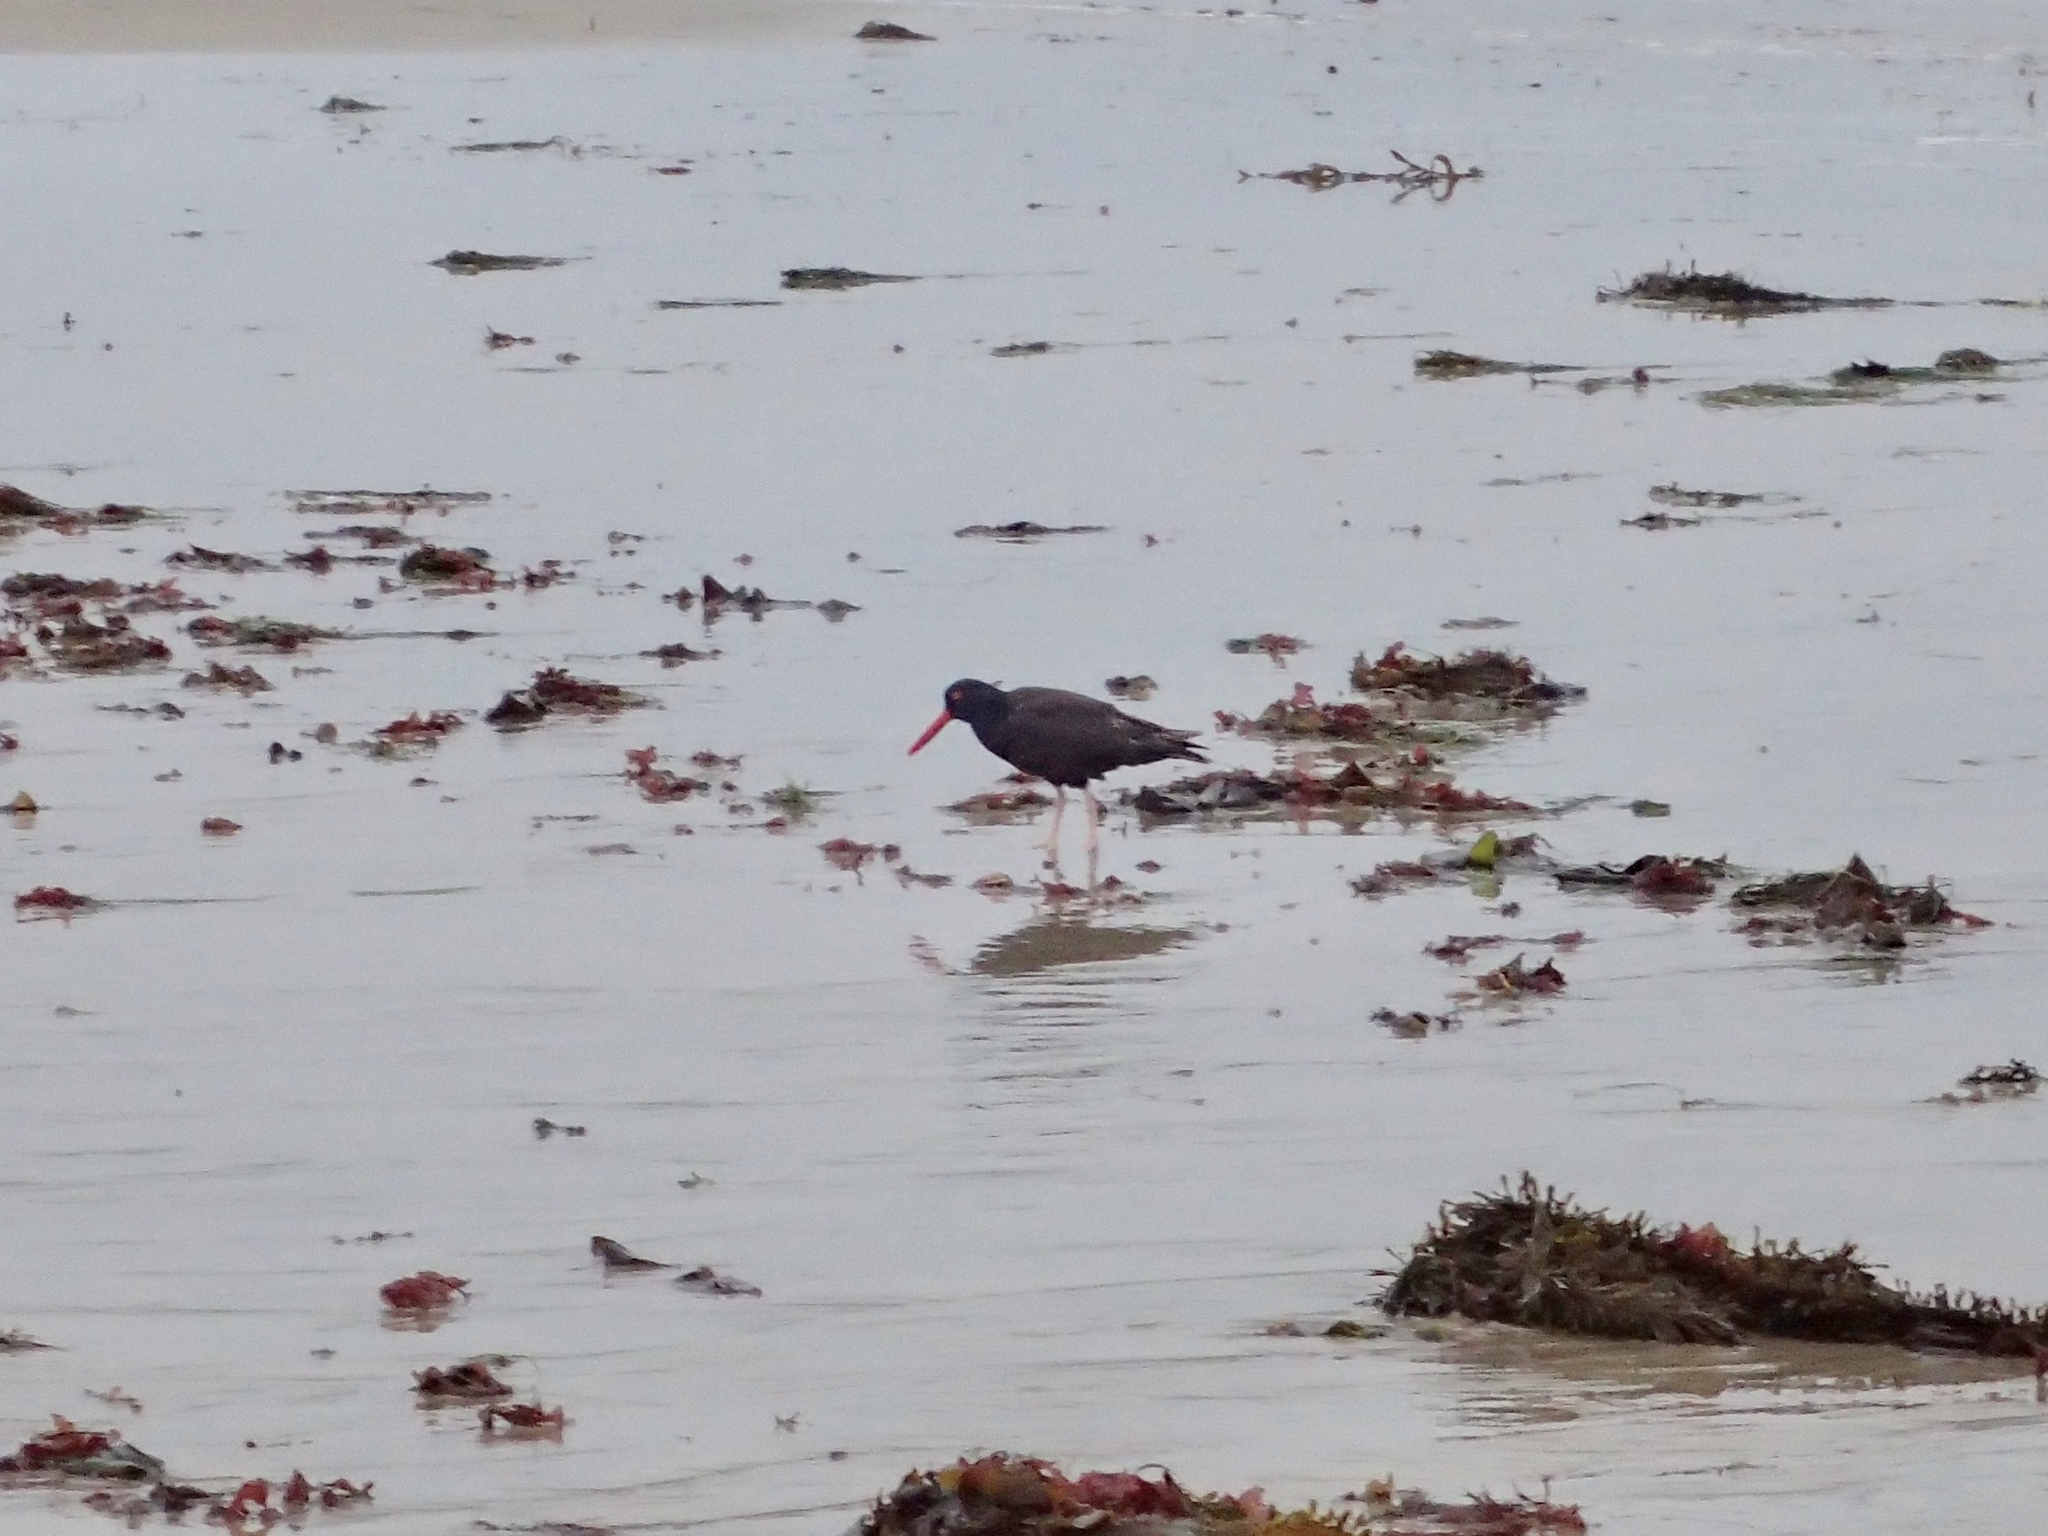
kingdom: Animalia
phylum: Chordata
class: Aves
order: Charadriiformes
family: Haematopodidae
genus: Haematopus
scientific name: Haematopus bachmani
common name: Black oystercatcher
